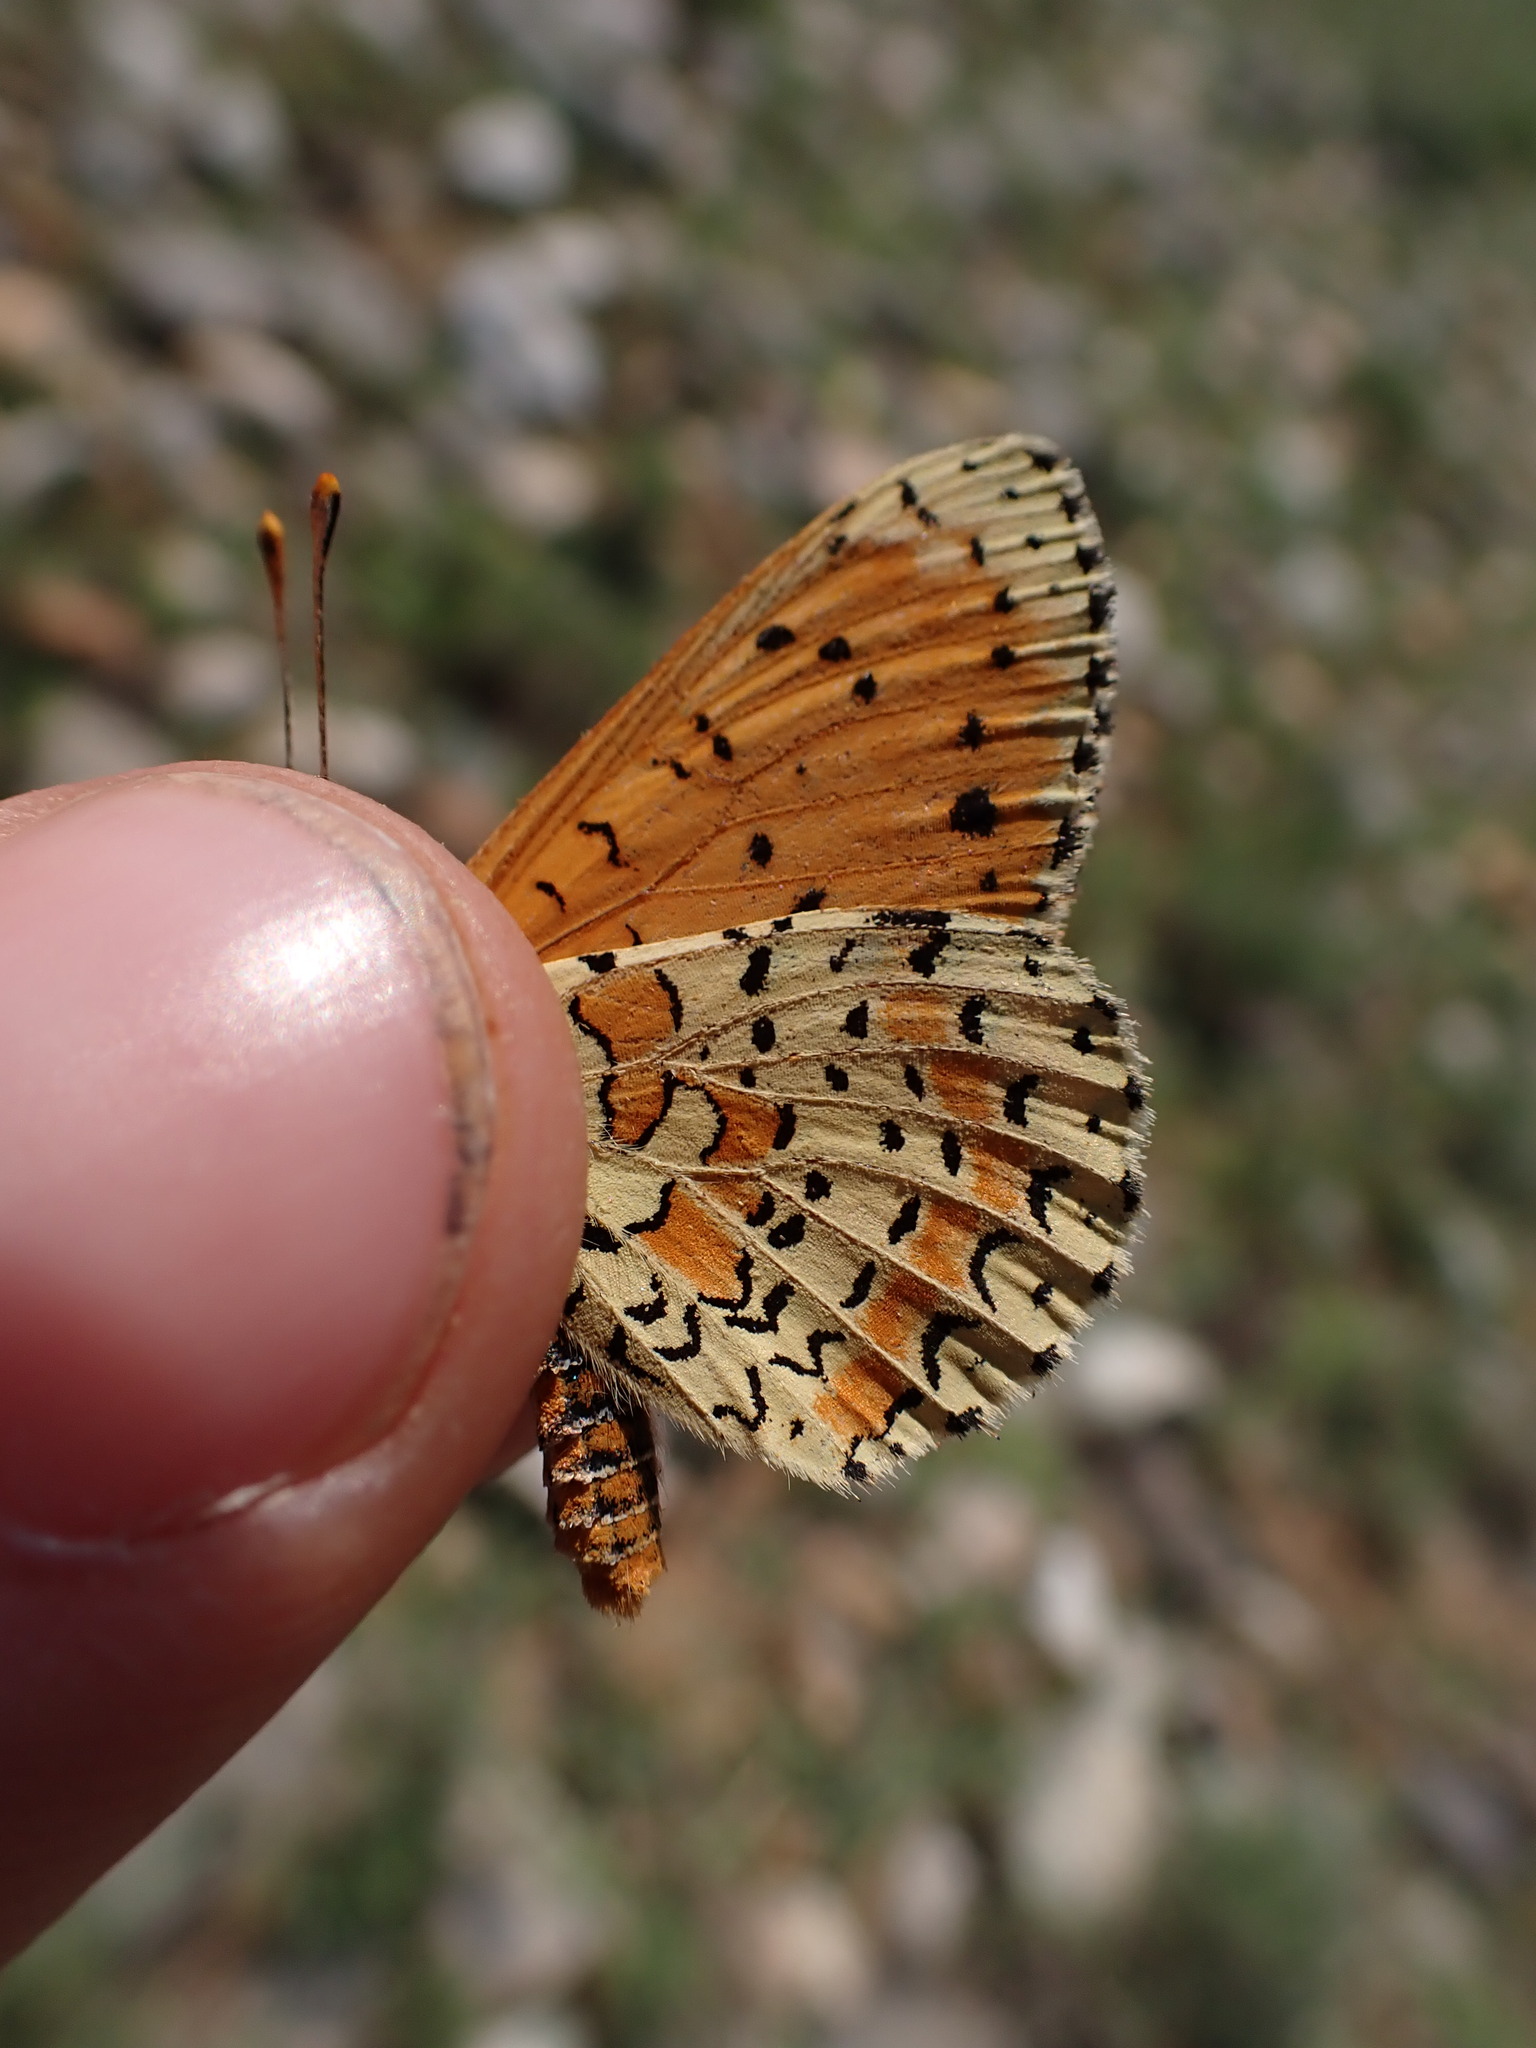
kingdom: Animalia
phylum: Arthropoda
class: Insecta
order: Lepidoptera
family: Nymphalidae
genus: Melitaea
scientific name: Melitaea didyma
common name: Spotted fritillary
